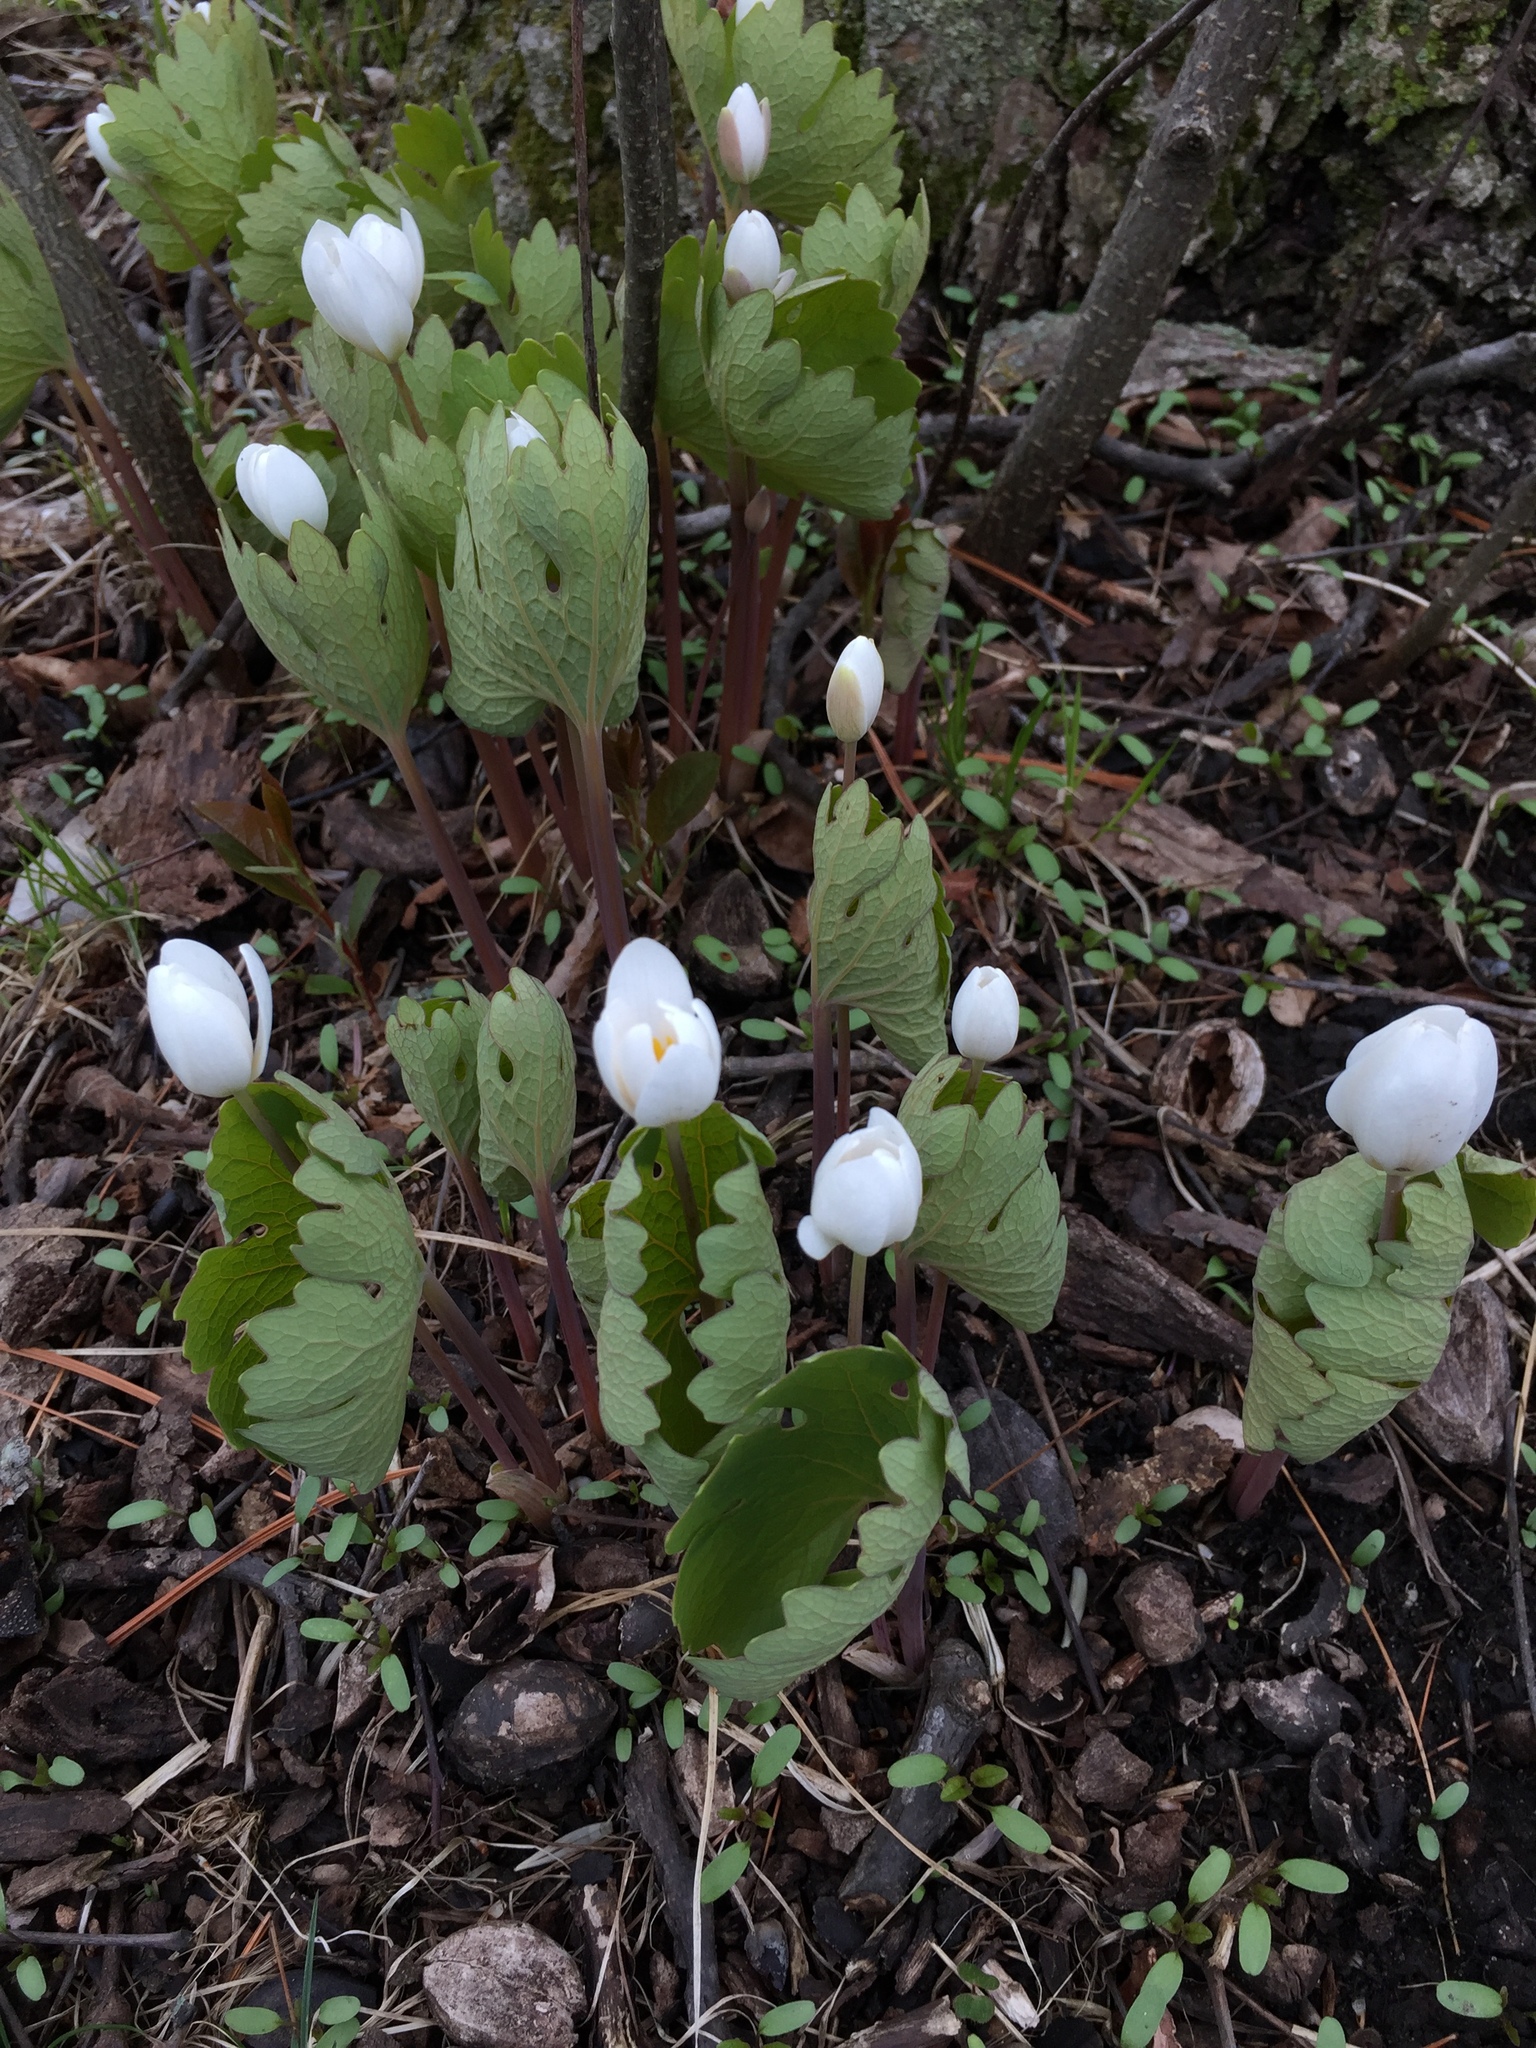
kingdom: Plantae
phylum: Tracheophyta
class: Magnoliopsida
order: Ranunculales
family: Papaveraceae
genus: Sanguinaria
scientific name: Sanguinaria canadensis
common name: Bloodroot
